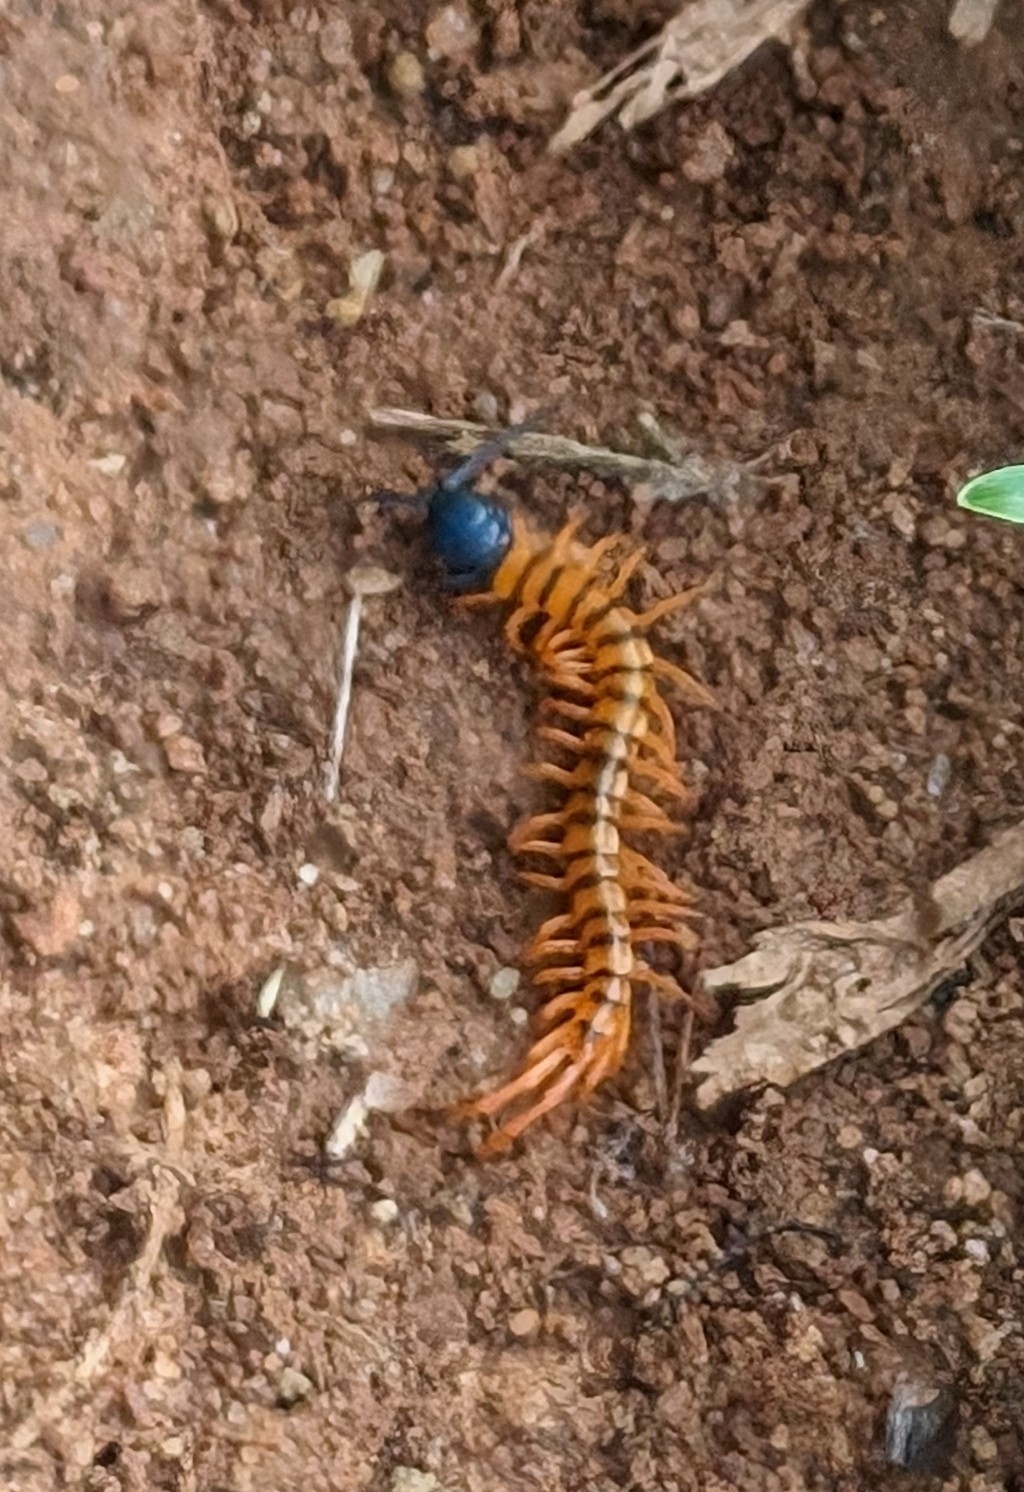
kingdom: Animalia
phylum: Arthropoda
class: Chilopoda
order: Scolopendromorpha
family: Scolopendridae
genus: Scolopendra
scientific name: Scolopendra dehaani
